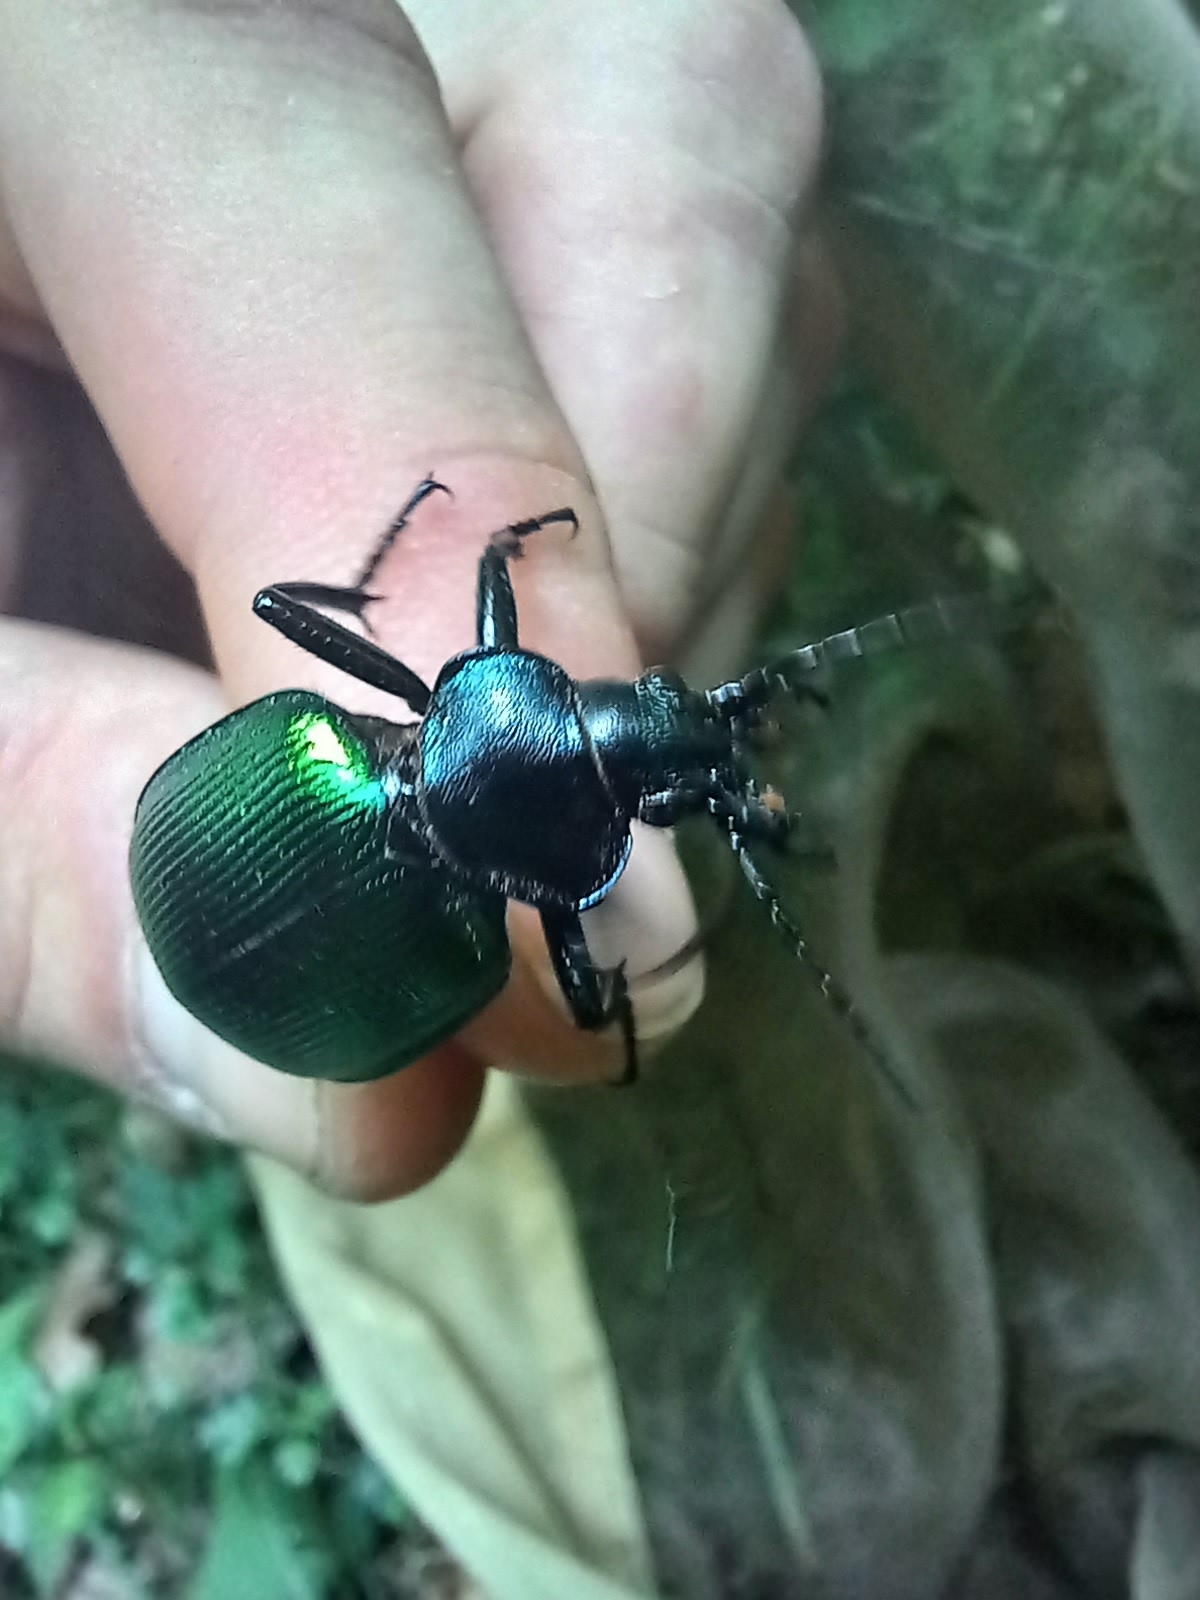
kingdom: Animalia
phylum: Arthropoda
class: Insecta
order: Coleoptera
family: Carabidae
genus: Calosoma
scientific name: Calosoma sycophanta
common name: Forest caterpillar hunter
